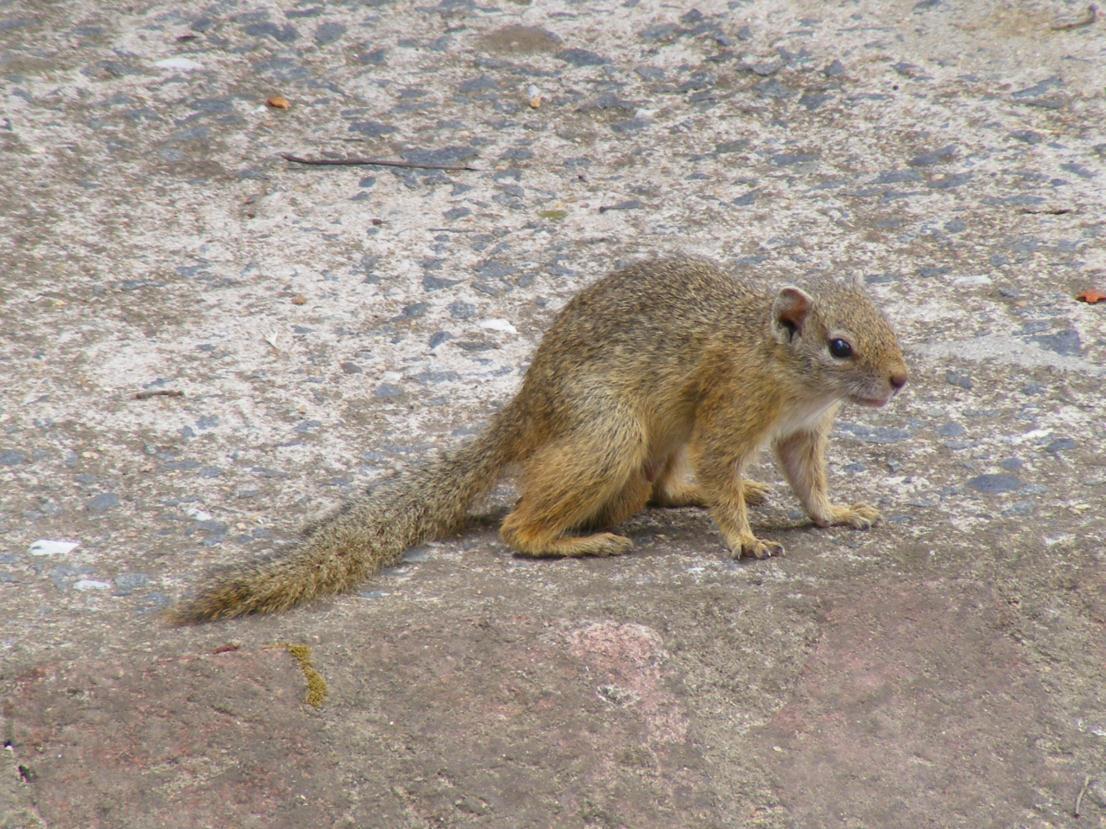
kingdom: Animalia
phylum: Chordata
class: Mammalia
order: Rodentia
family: Sciuridae
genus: Paraxerus
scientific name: Paraxerus cepapi
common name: Smith's bush squirrel
